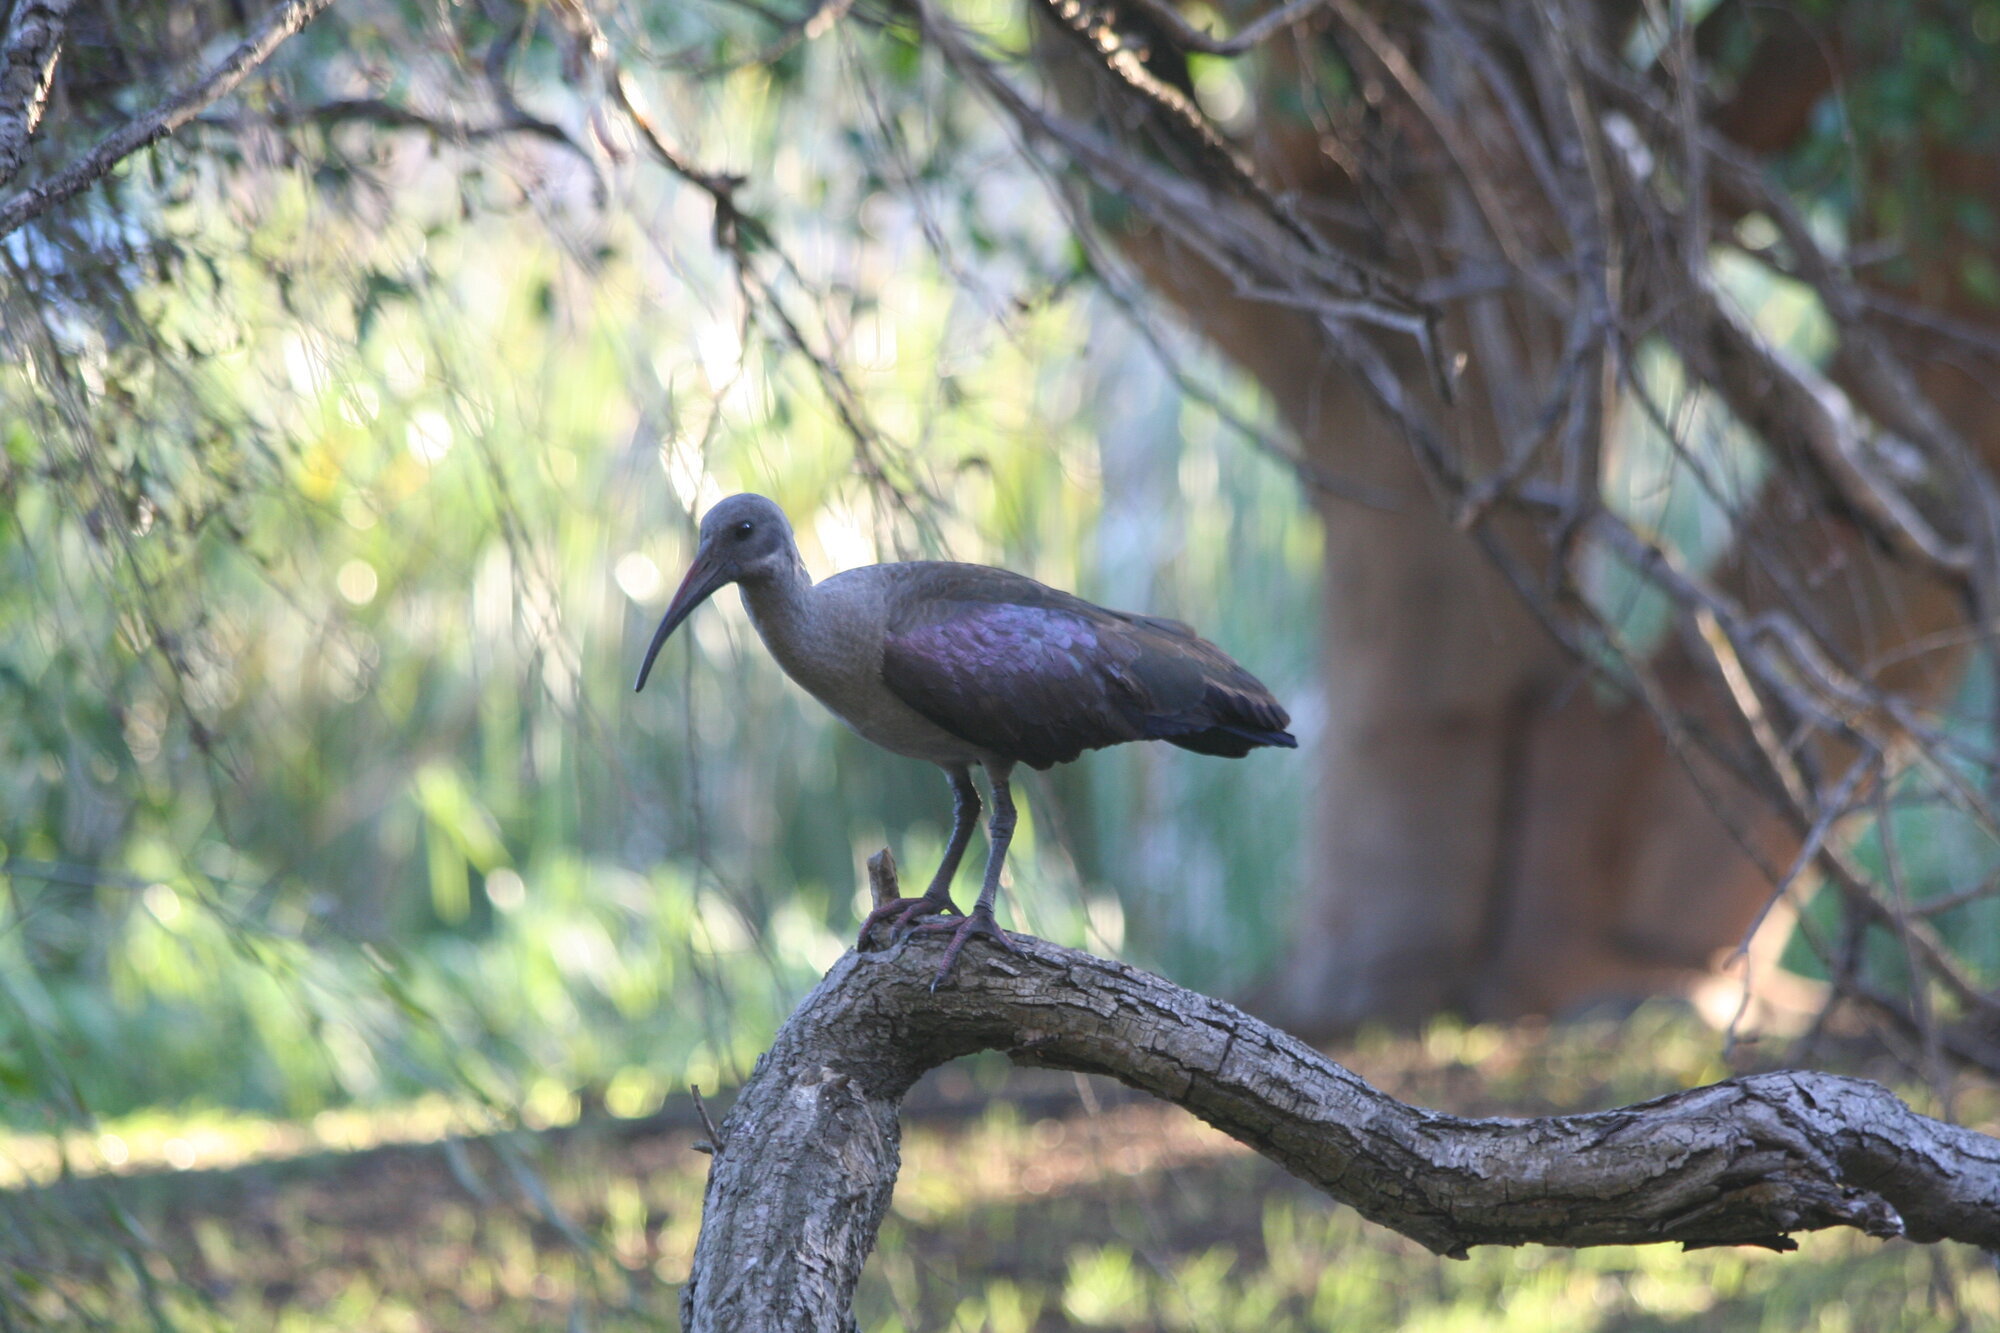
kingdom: Animalia
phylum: Chordata
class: Aves
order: Pelecaniformes
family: Threskiornithidae
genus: Bostrychia
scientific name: Bostrychia hagedash
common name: Hadada ibis
